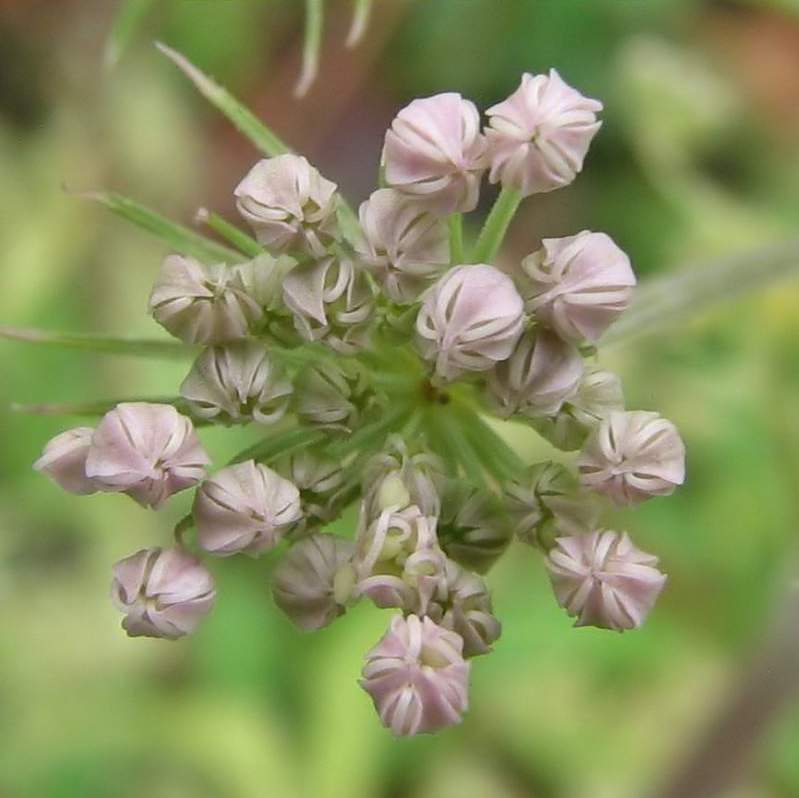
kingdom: Plantae
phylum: Tracheophyta
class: Magnoliopsida
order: Apiales
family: Apiaceae
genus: Angelica
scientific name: Angelica sylvestris
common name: Wild angelica
